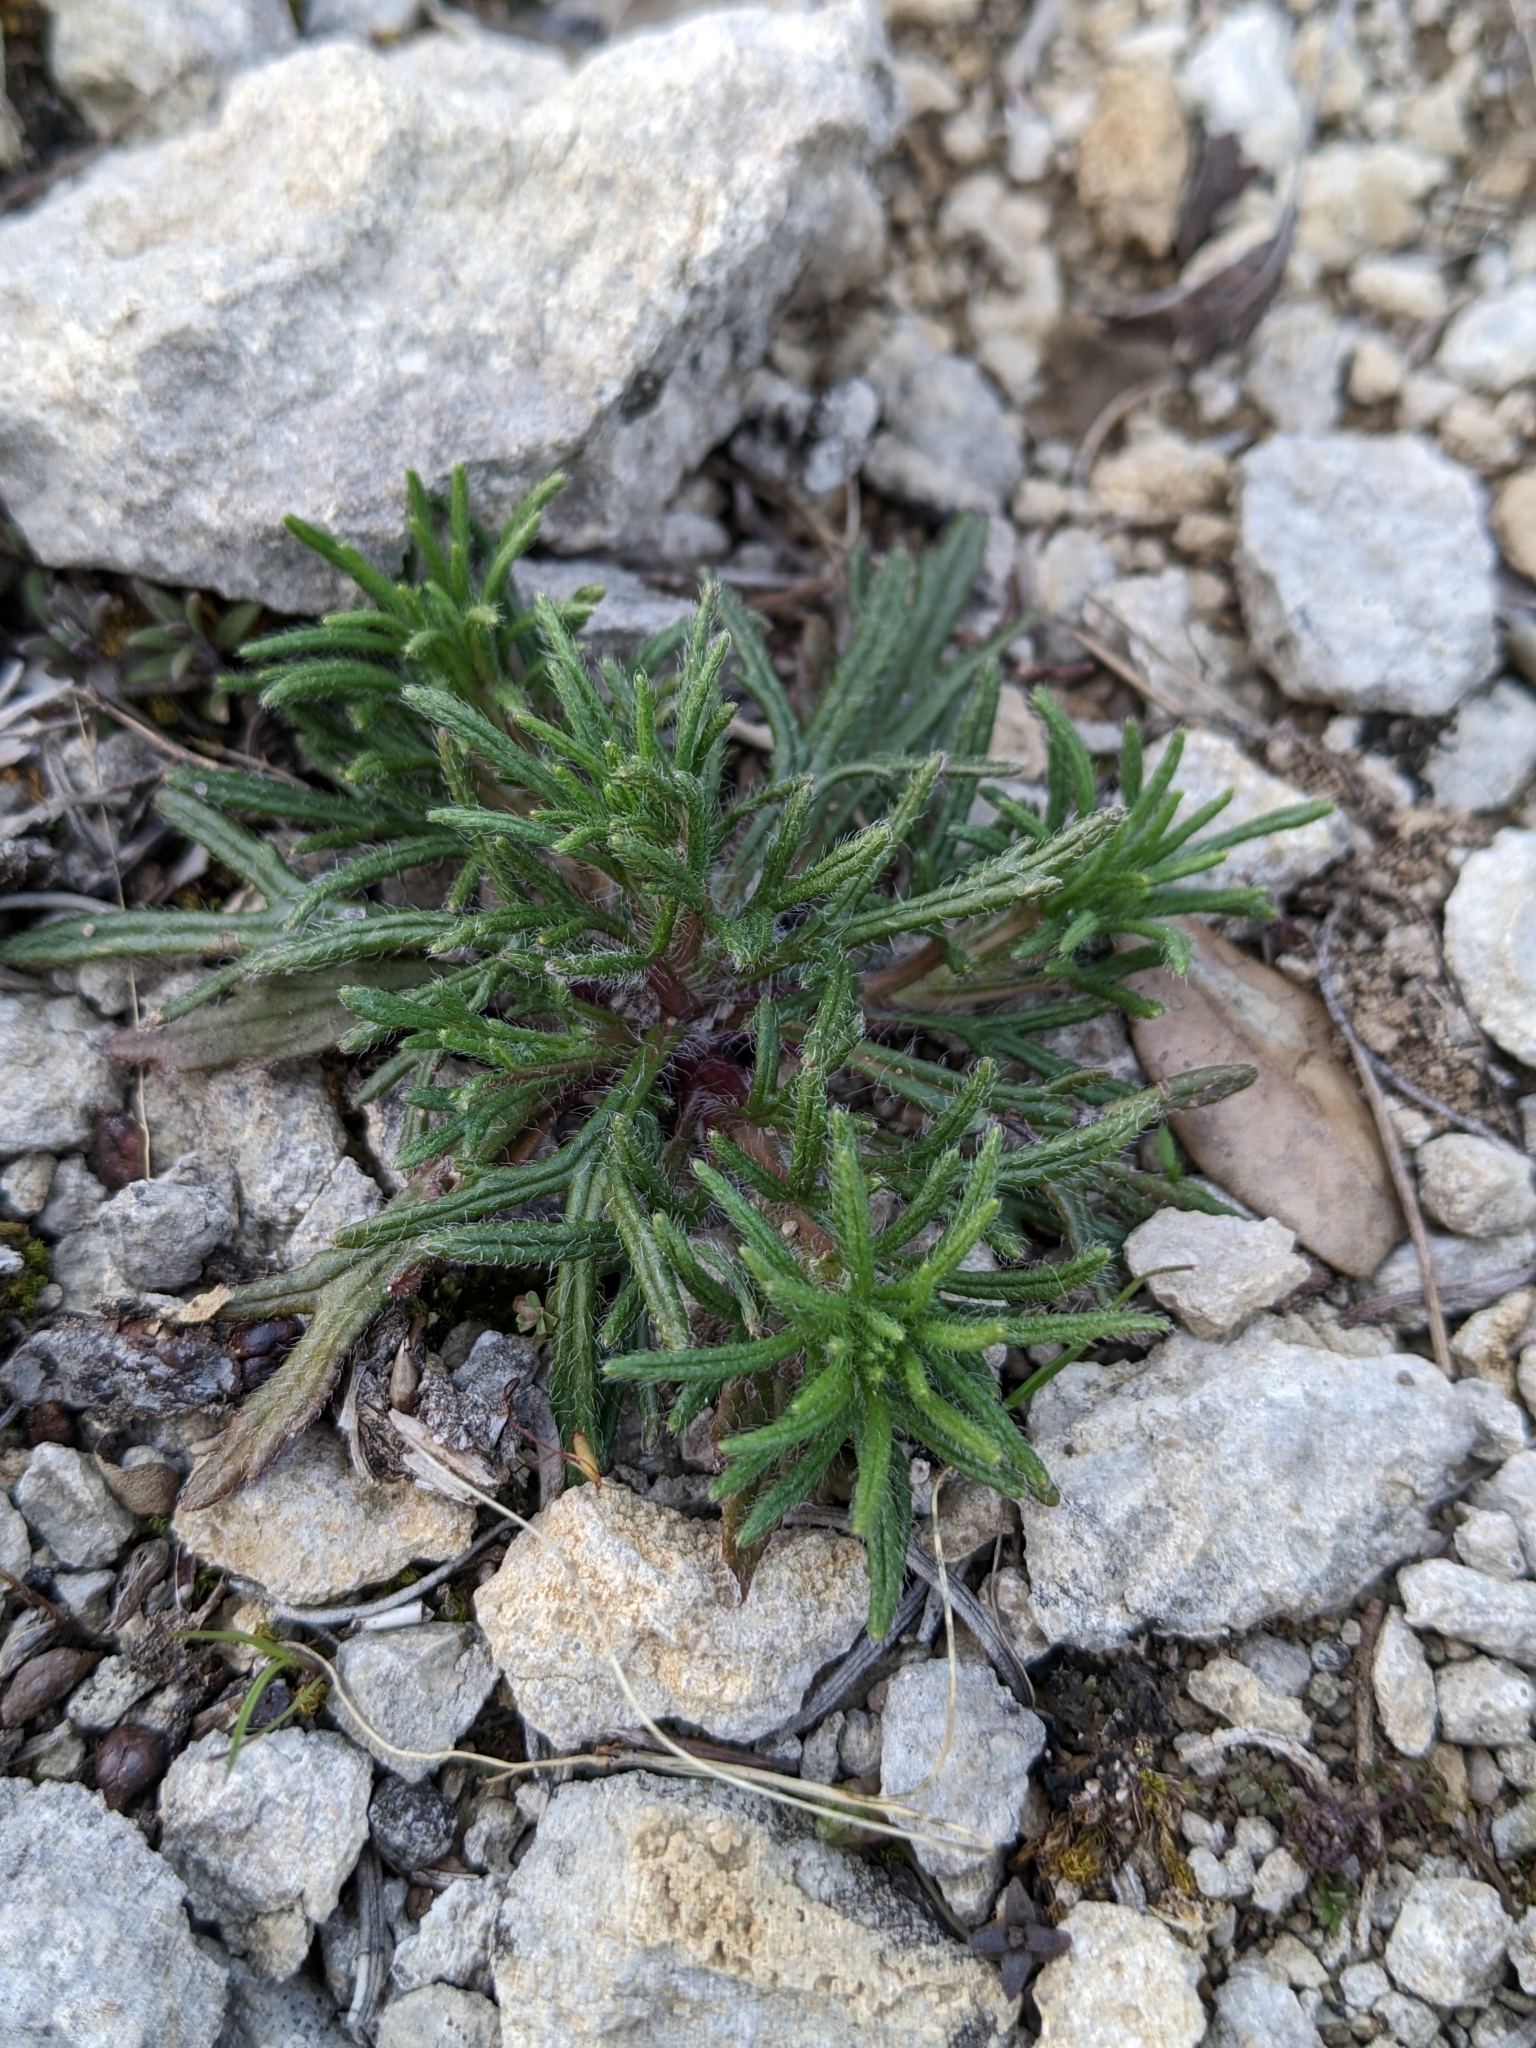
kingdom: Plantae
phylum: Tracheophyta
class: Magnoliopsida
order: Lamiales
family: Lamiaceae
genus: Ajuga
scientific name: Ajuga chamaepitys
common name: Ground-pine
